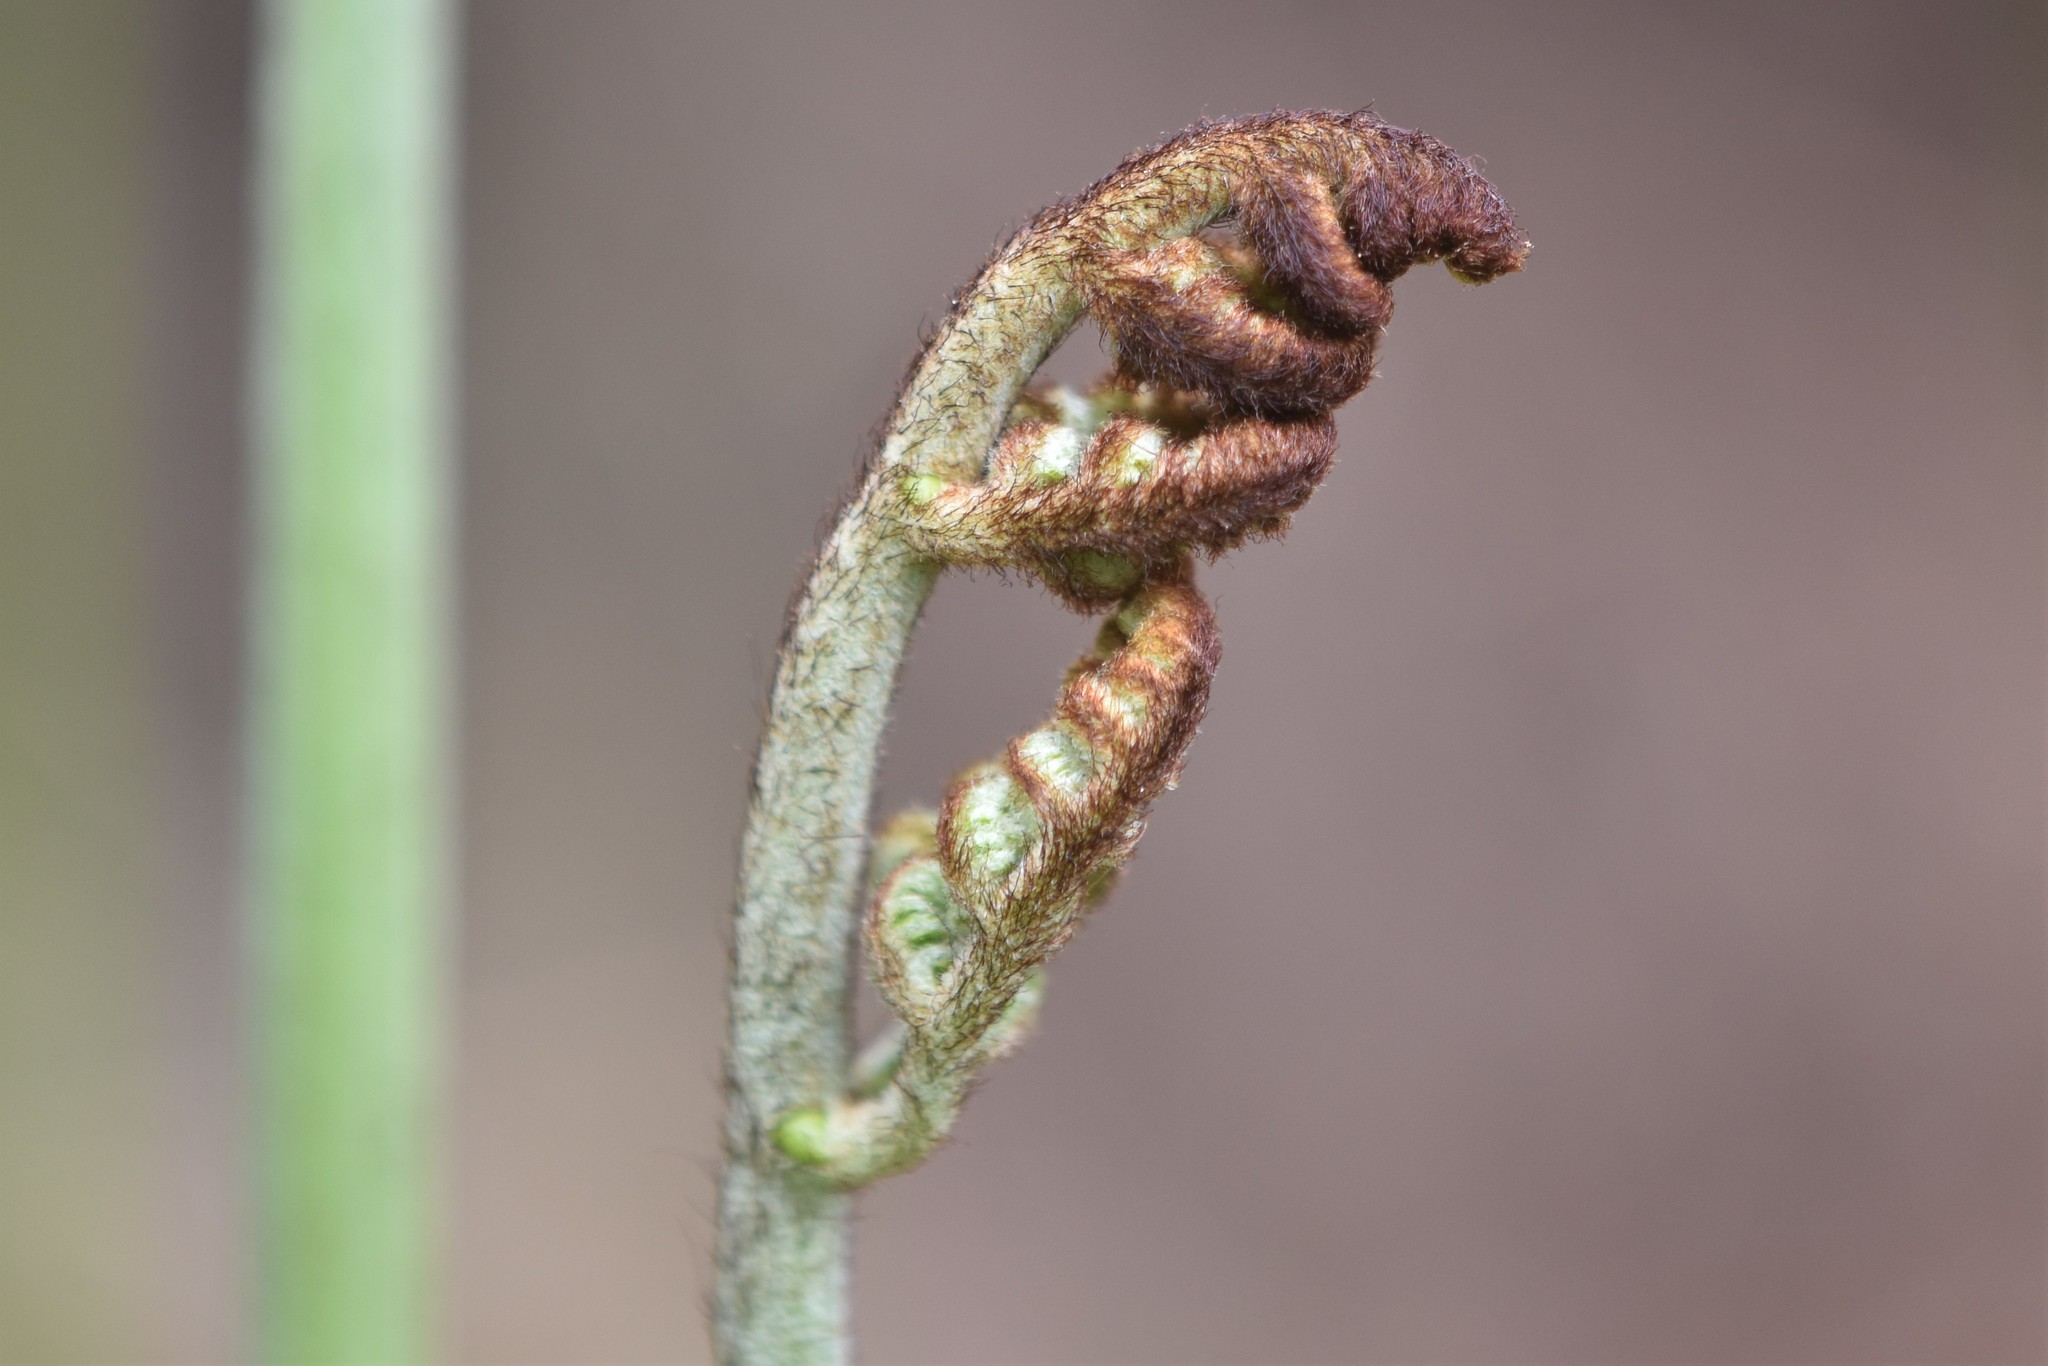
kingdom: Plantae
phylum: Tracheophyta
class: Polypodiopsida
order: Polypodiales
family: Dennstaedtiaceae
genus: Pteridium
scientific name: Pteridium aquilinum
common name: Bracken
